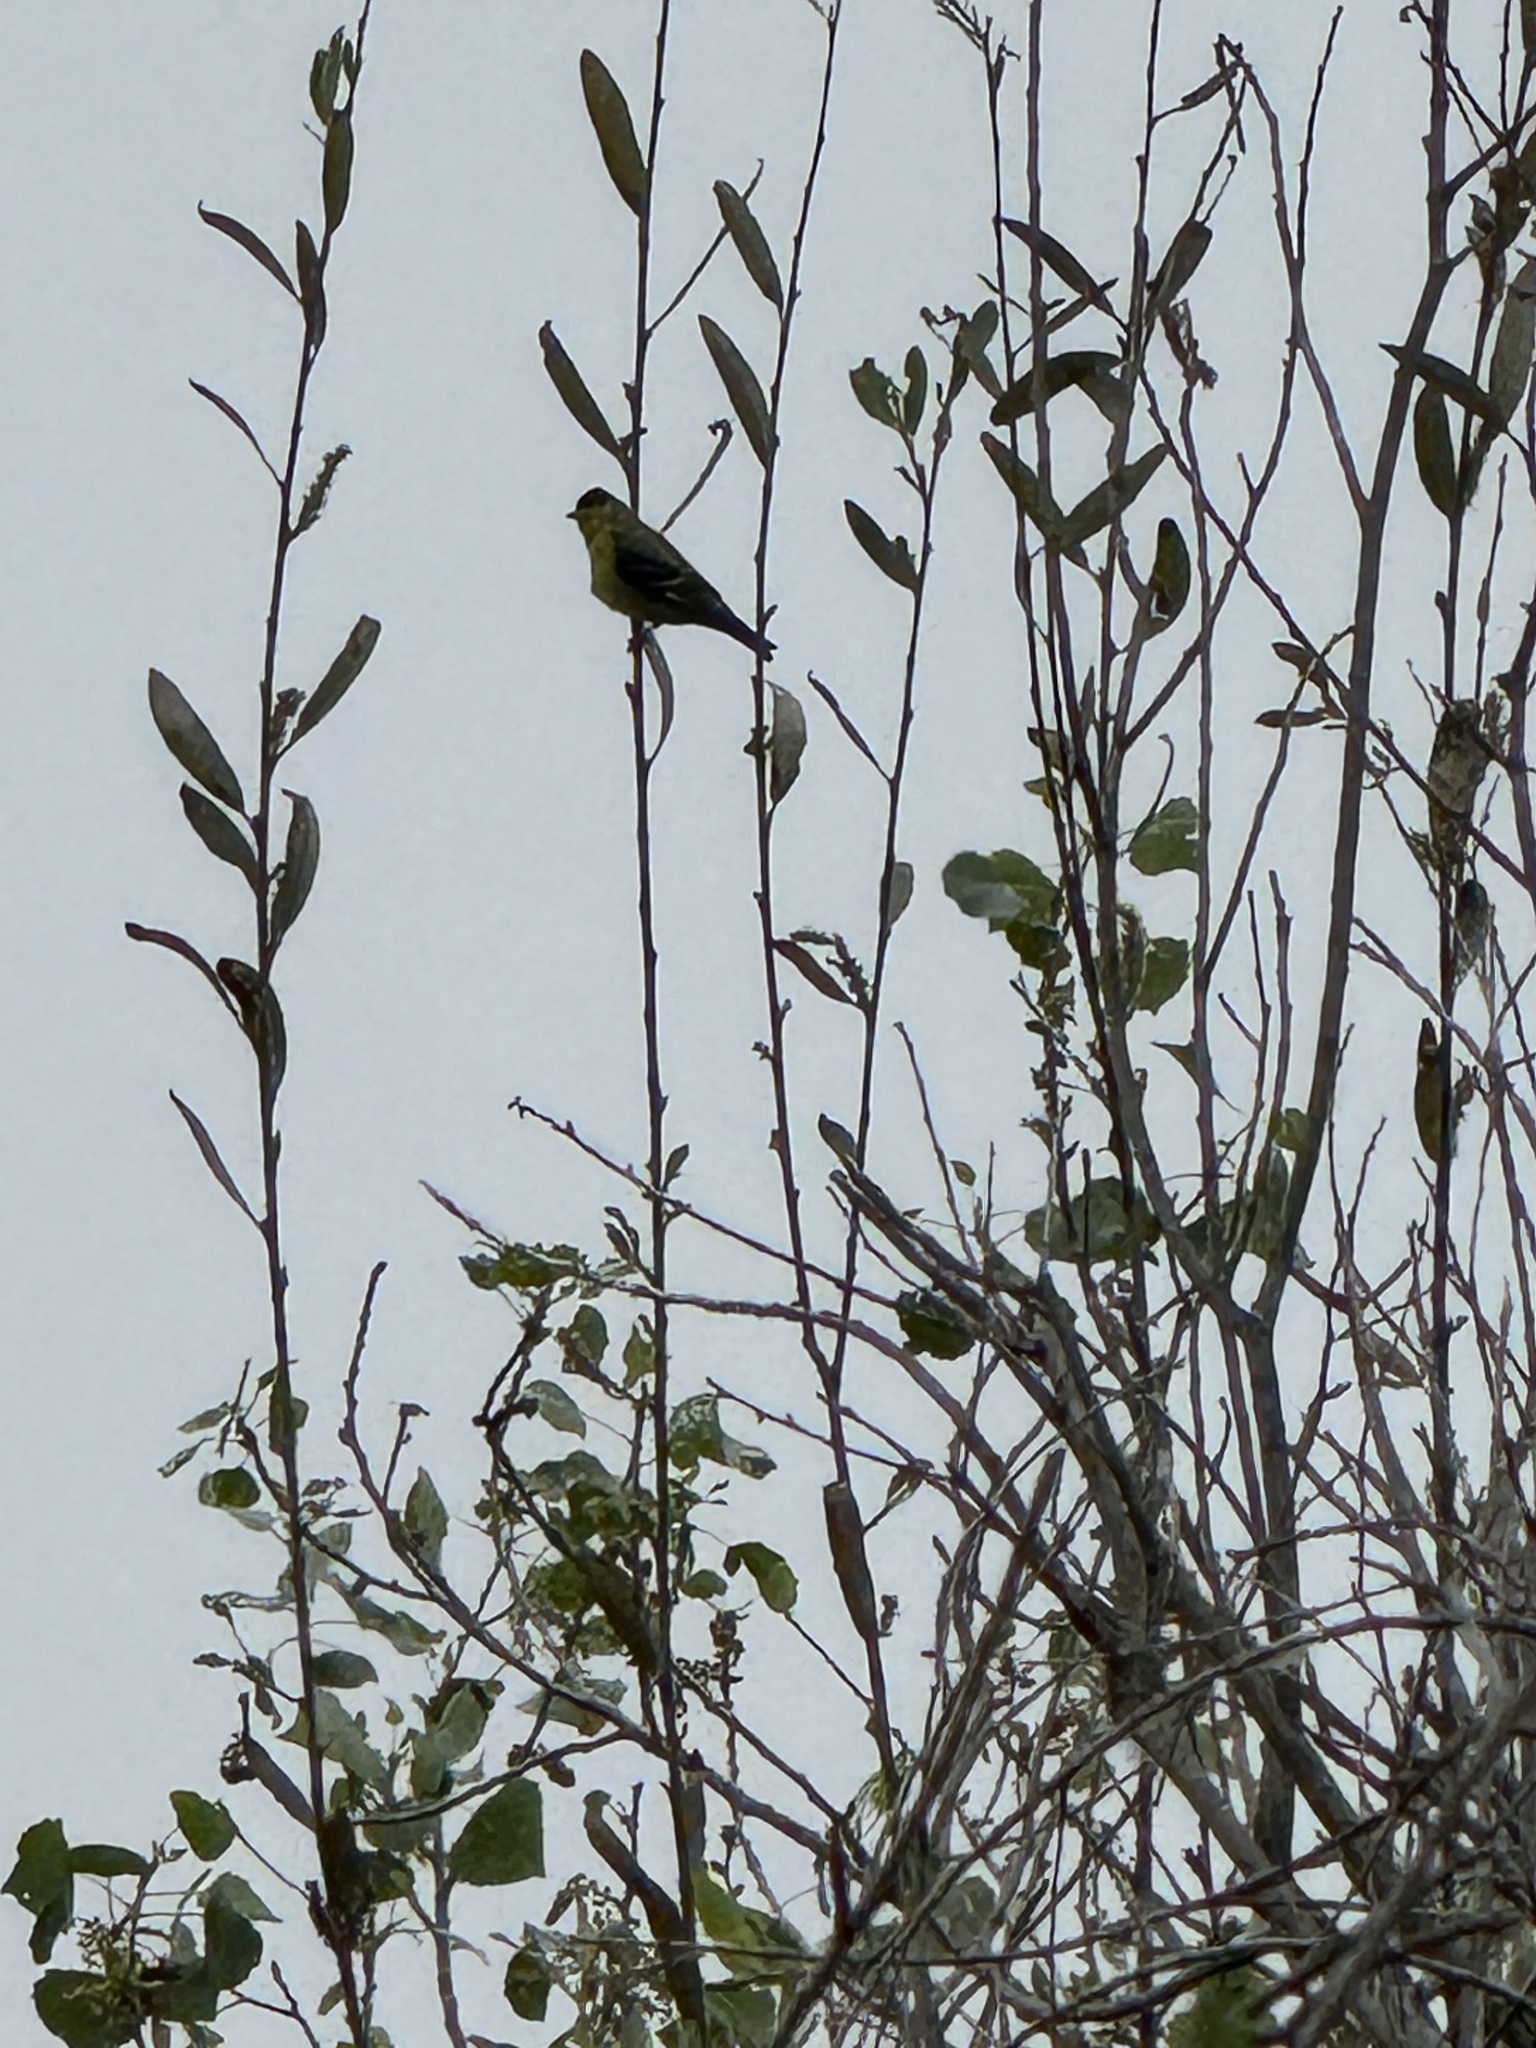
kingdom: Animalia
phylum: Chordata
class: Aves
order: Passeriformes
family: Fringillidae
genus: Spinus
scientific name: Spinus psaltria
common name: Lesser goldfinch
